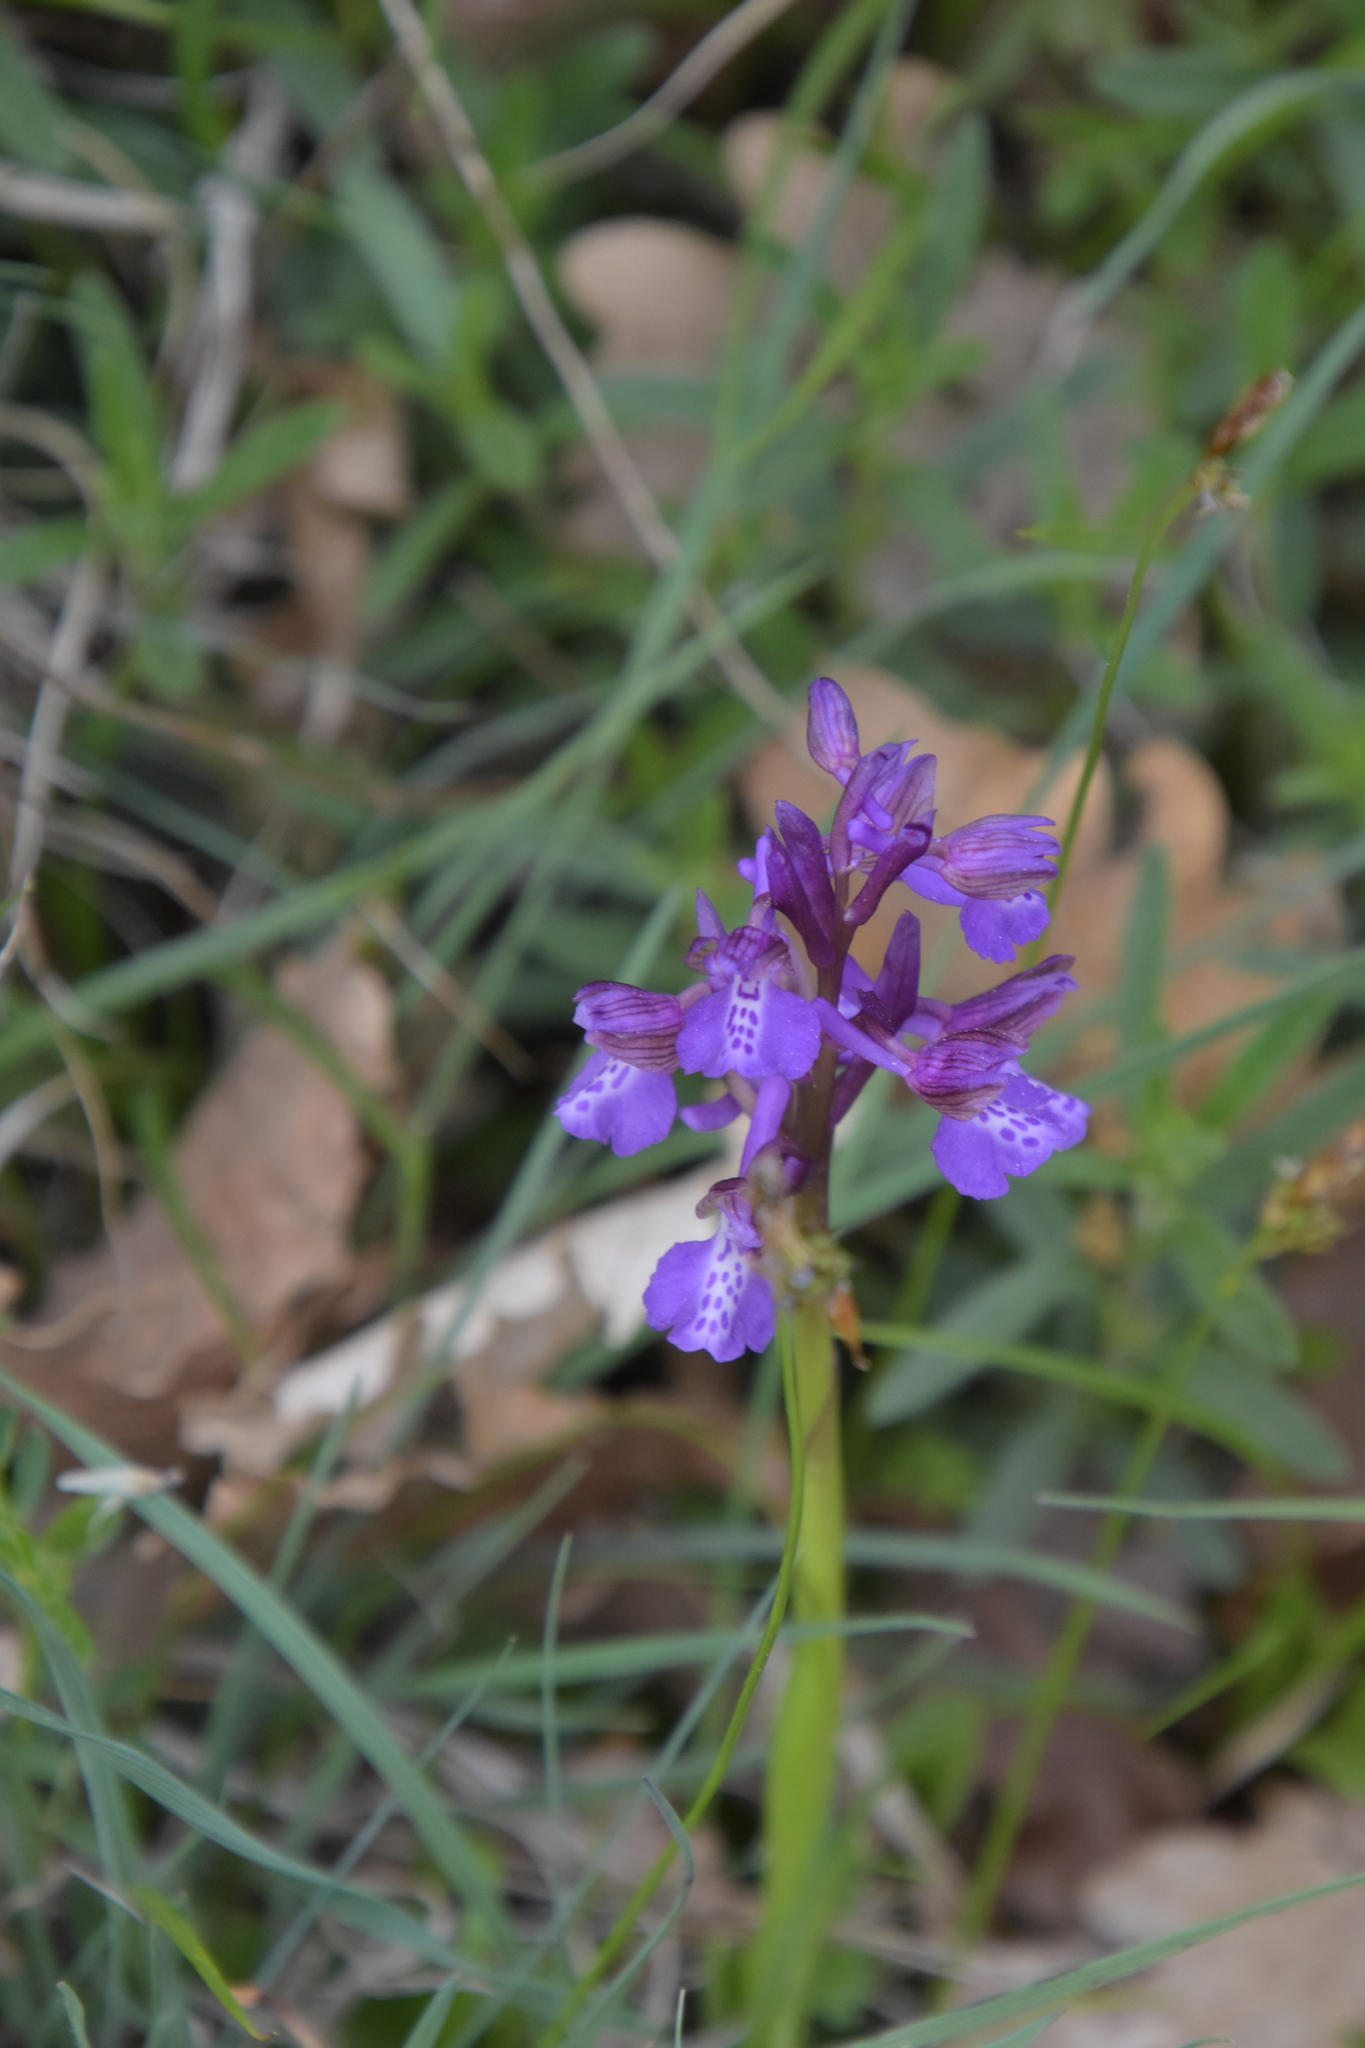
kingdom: Plantae
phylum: Tracheophyta
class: Liliopsida
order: Asparagales
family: Orchidaceae
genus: Anacamptis
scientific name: Anacamptis morio
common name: Green-winged orchid
